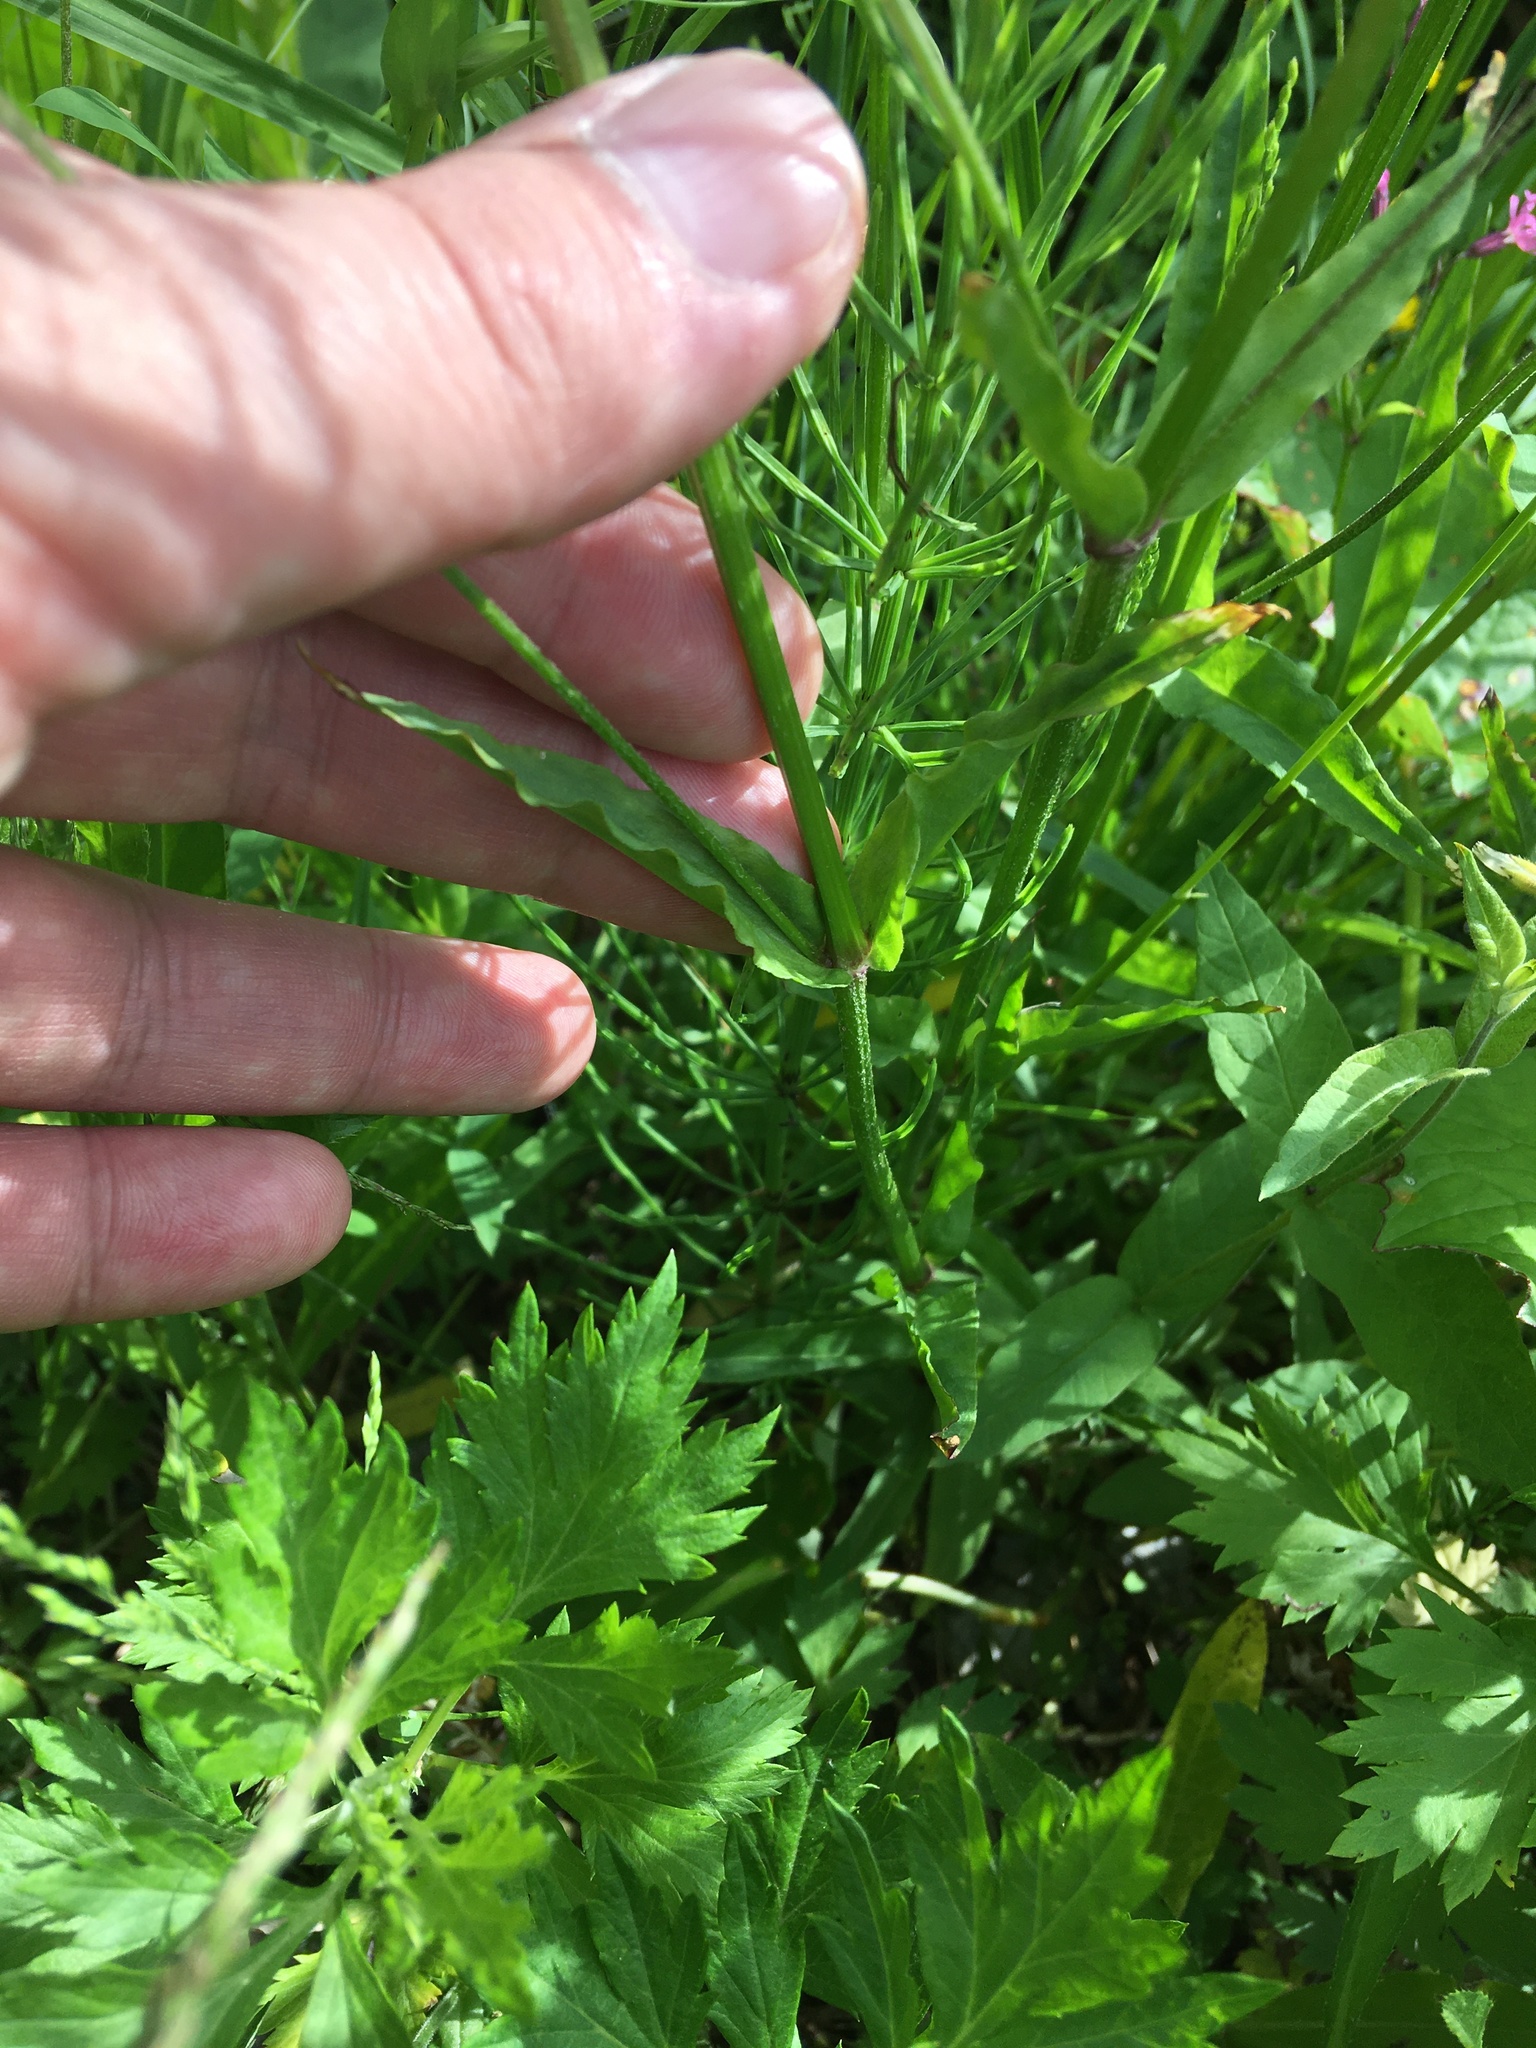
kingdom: Plantae
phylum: Tracheophyta
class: Magnoliopsida
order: Caryophyllales
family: Caryophyllaceae
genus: Silene
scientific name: Silene flos-cuculi
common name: Ragged-robin
